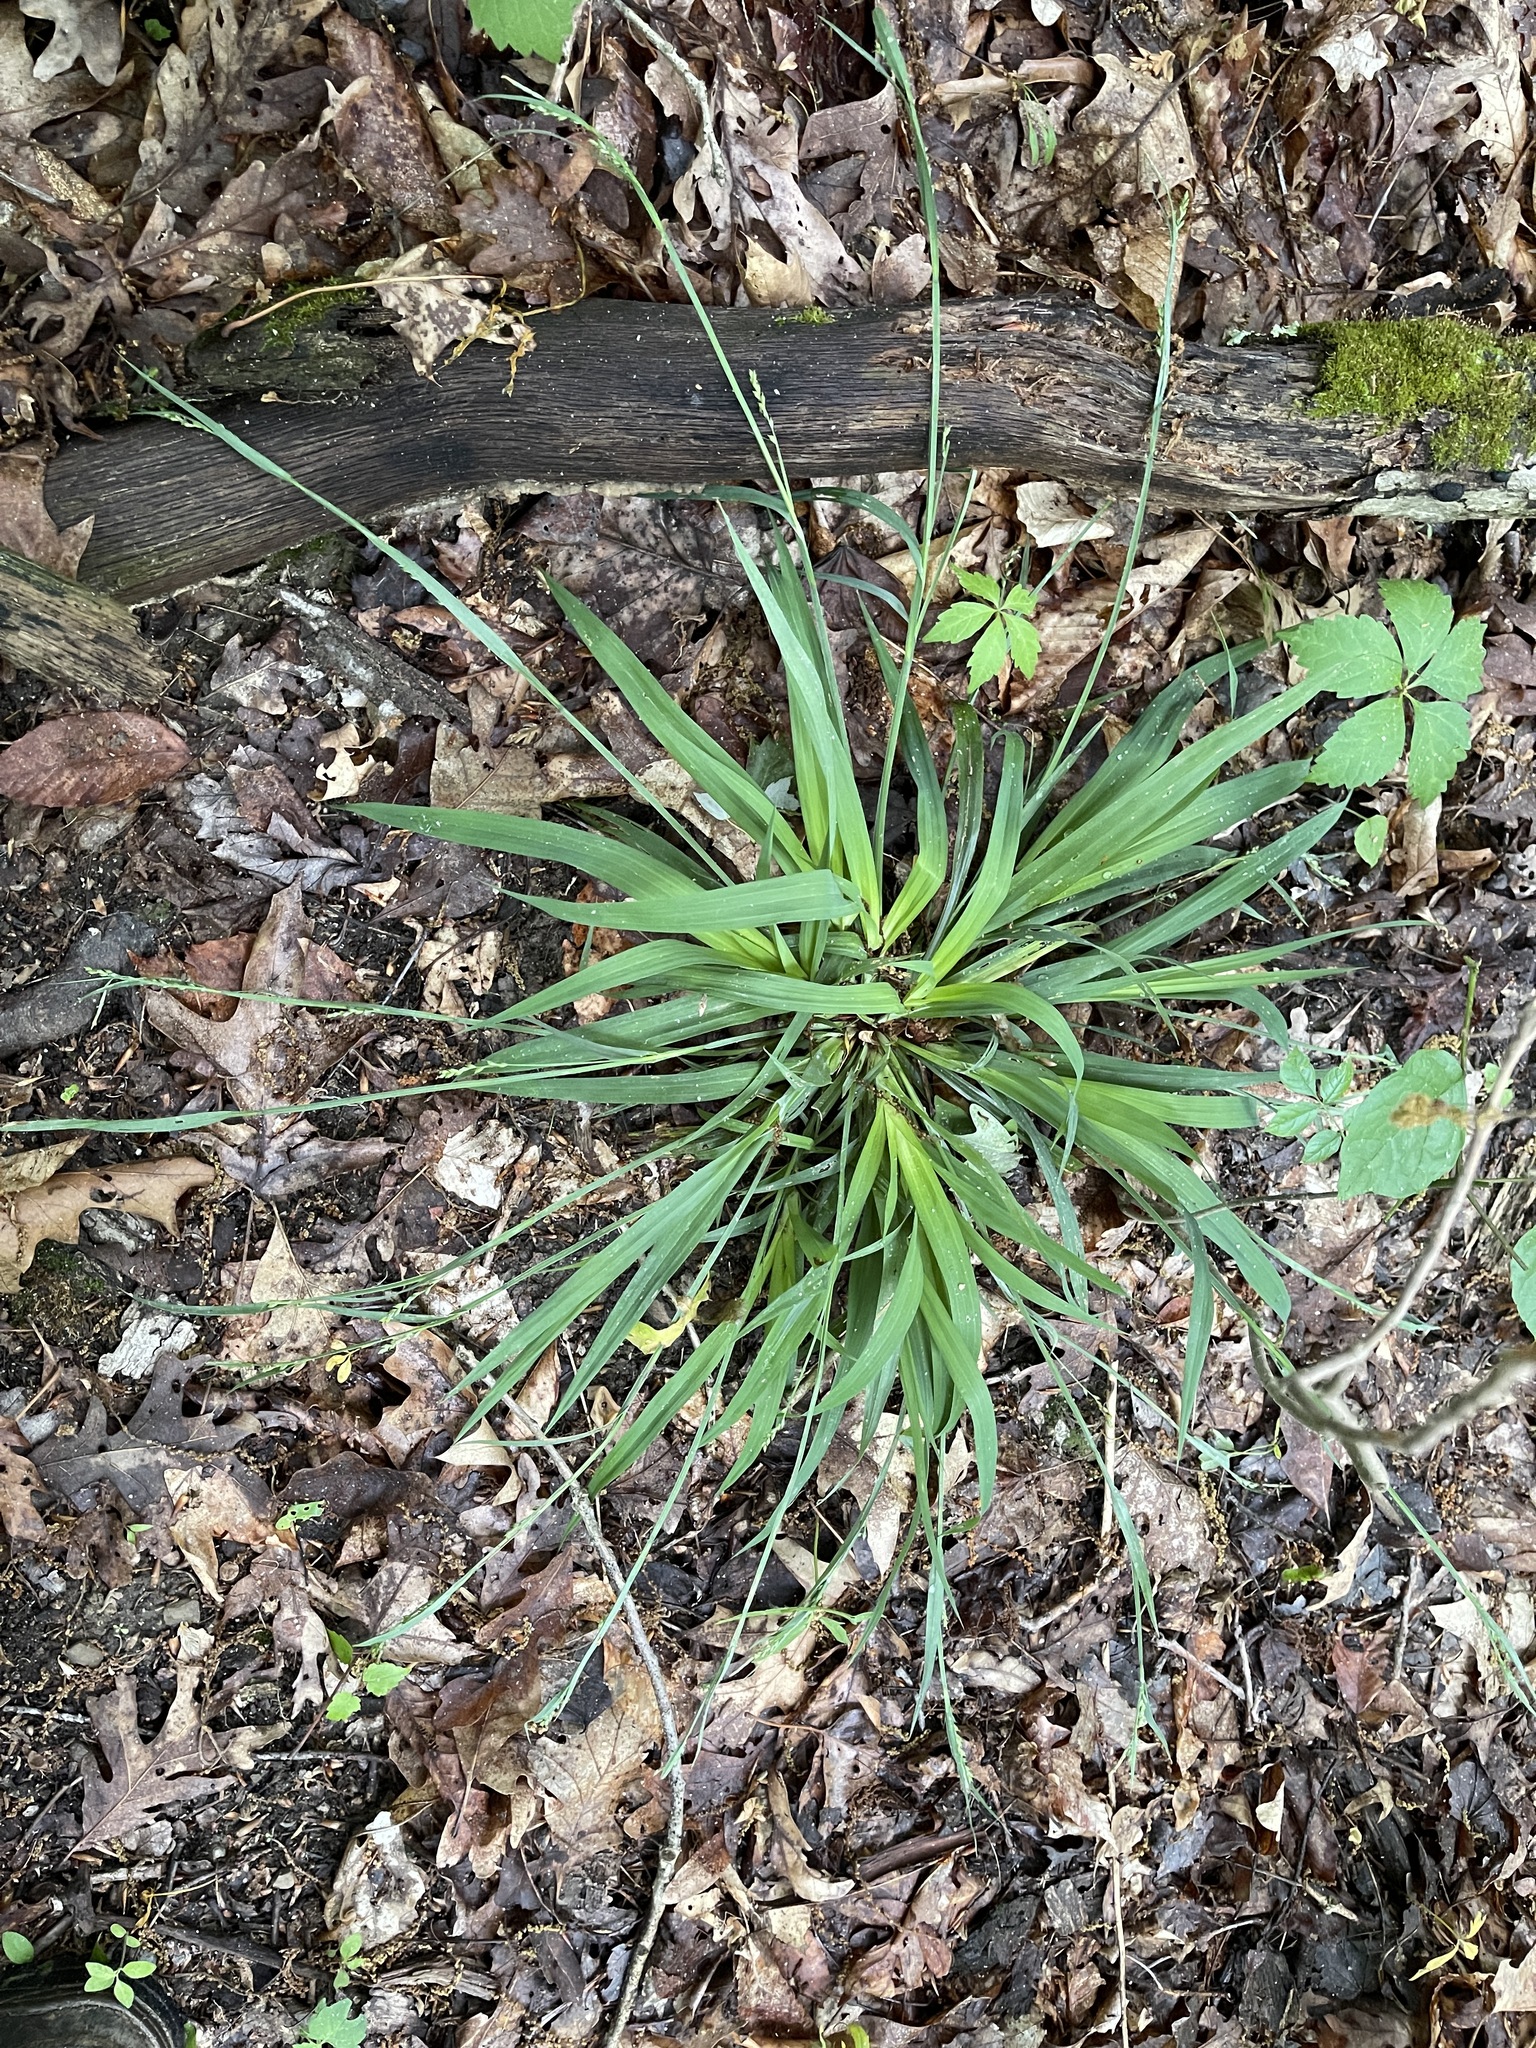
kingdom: Plantae
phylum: Tracheophyta
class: Liliopsida
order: Poales
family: Cyperaceae
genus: Carex
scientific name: Carex laxiflora
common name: Beech wood sedge
